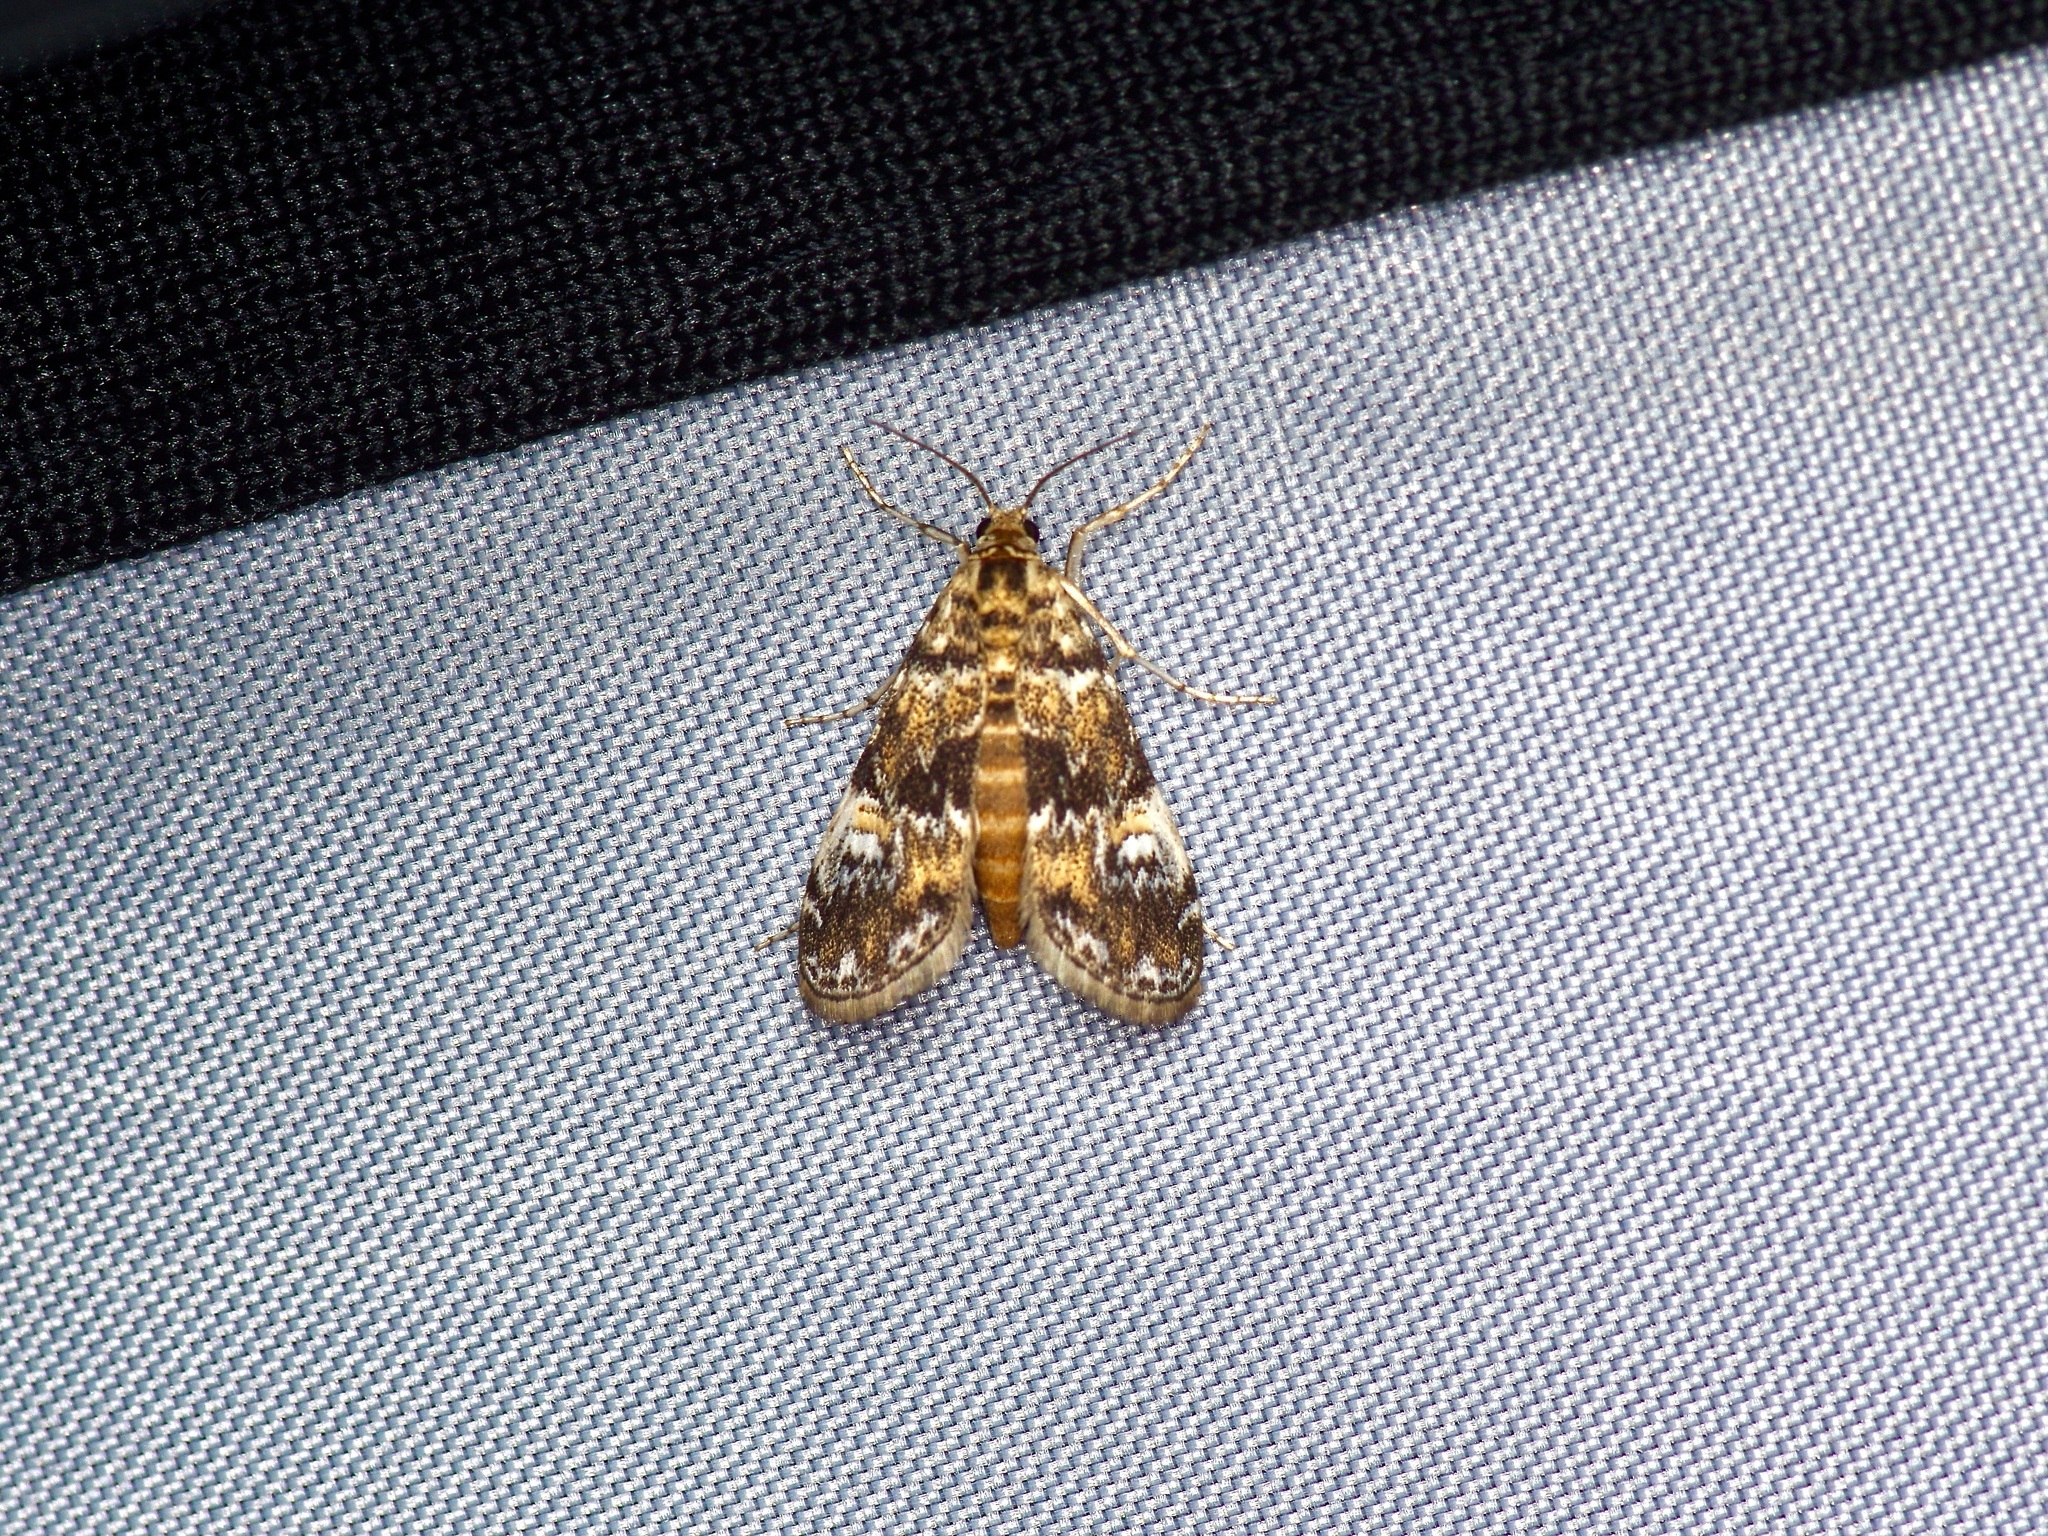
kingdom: Animalia
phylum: Arthropoda
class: Insecta
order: Lepidoptera
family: Crambidae
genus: Elophila
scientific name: Elophila obliteralis
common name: Waterlily leafcutter moth
